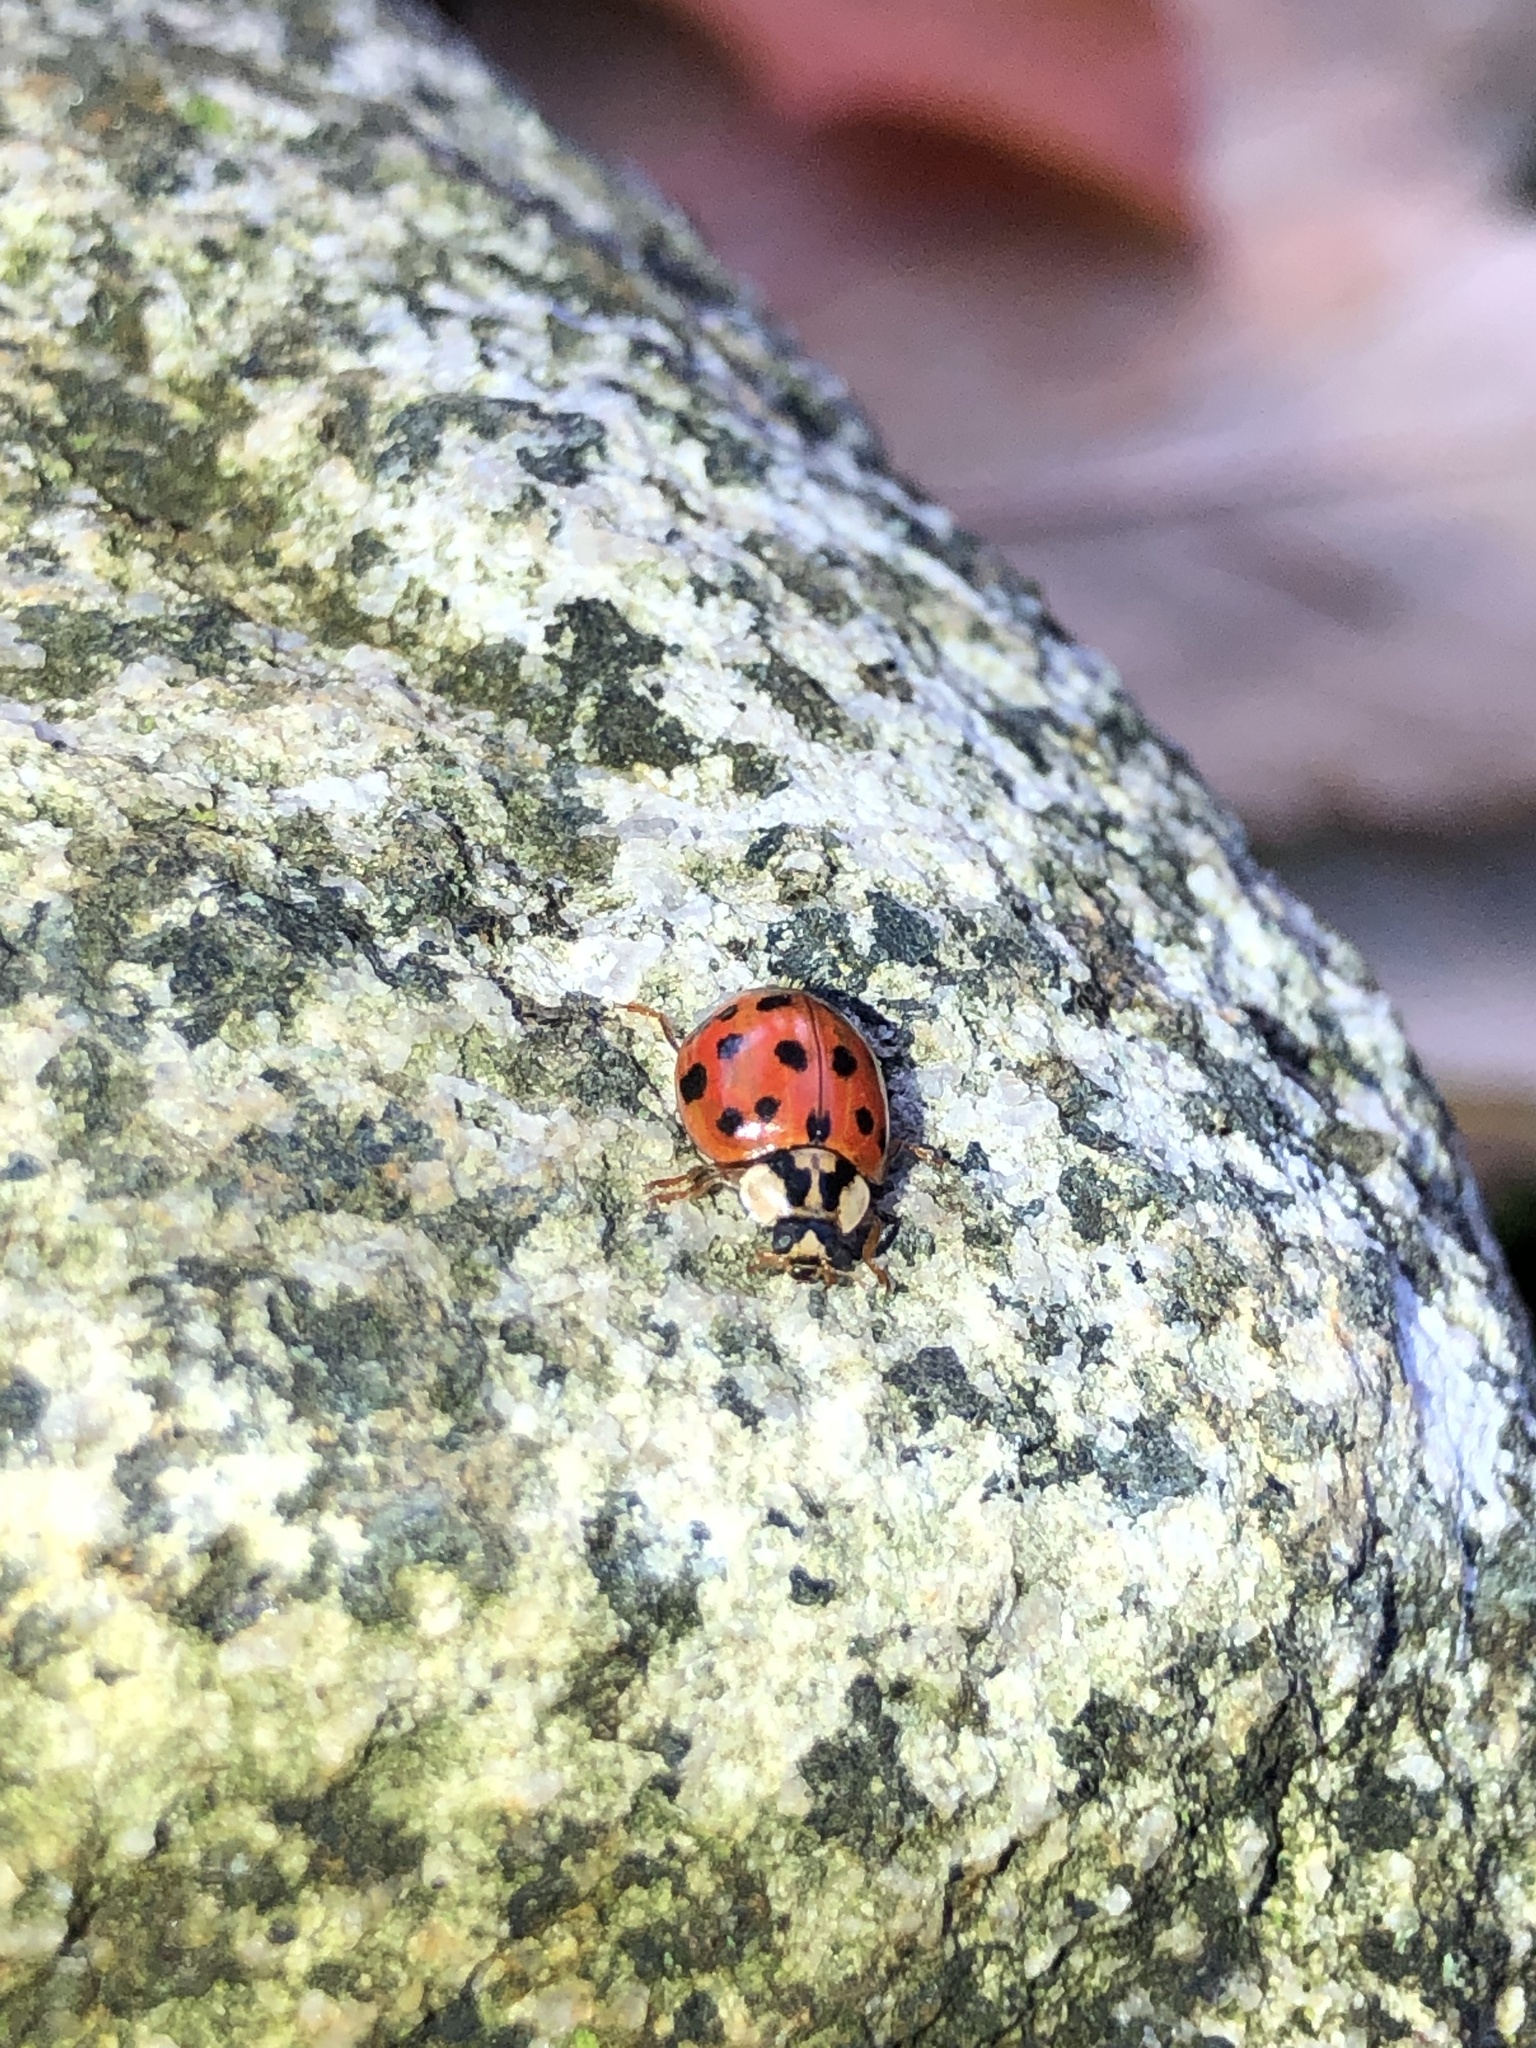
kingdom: Animalia
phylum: Arthropoda
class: Insecta
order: Coleoptera
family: Coccinellidae
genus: Harmonia
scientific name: Harmonia axyridis
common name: Harlequin ladybird
